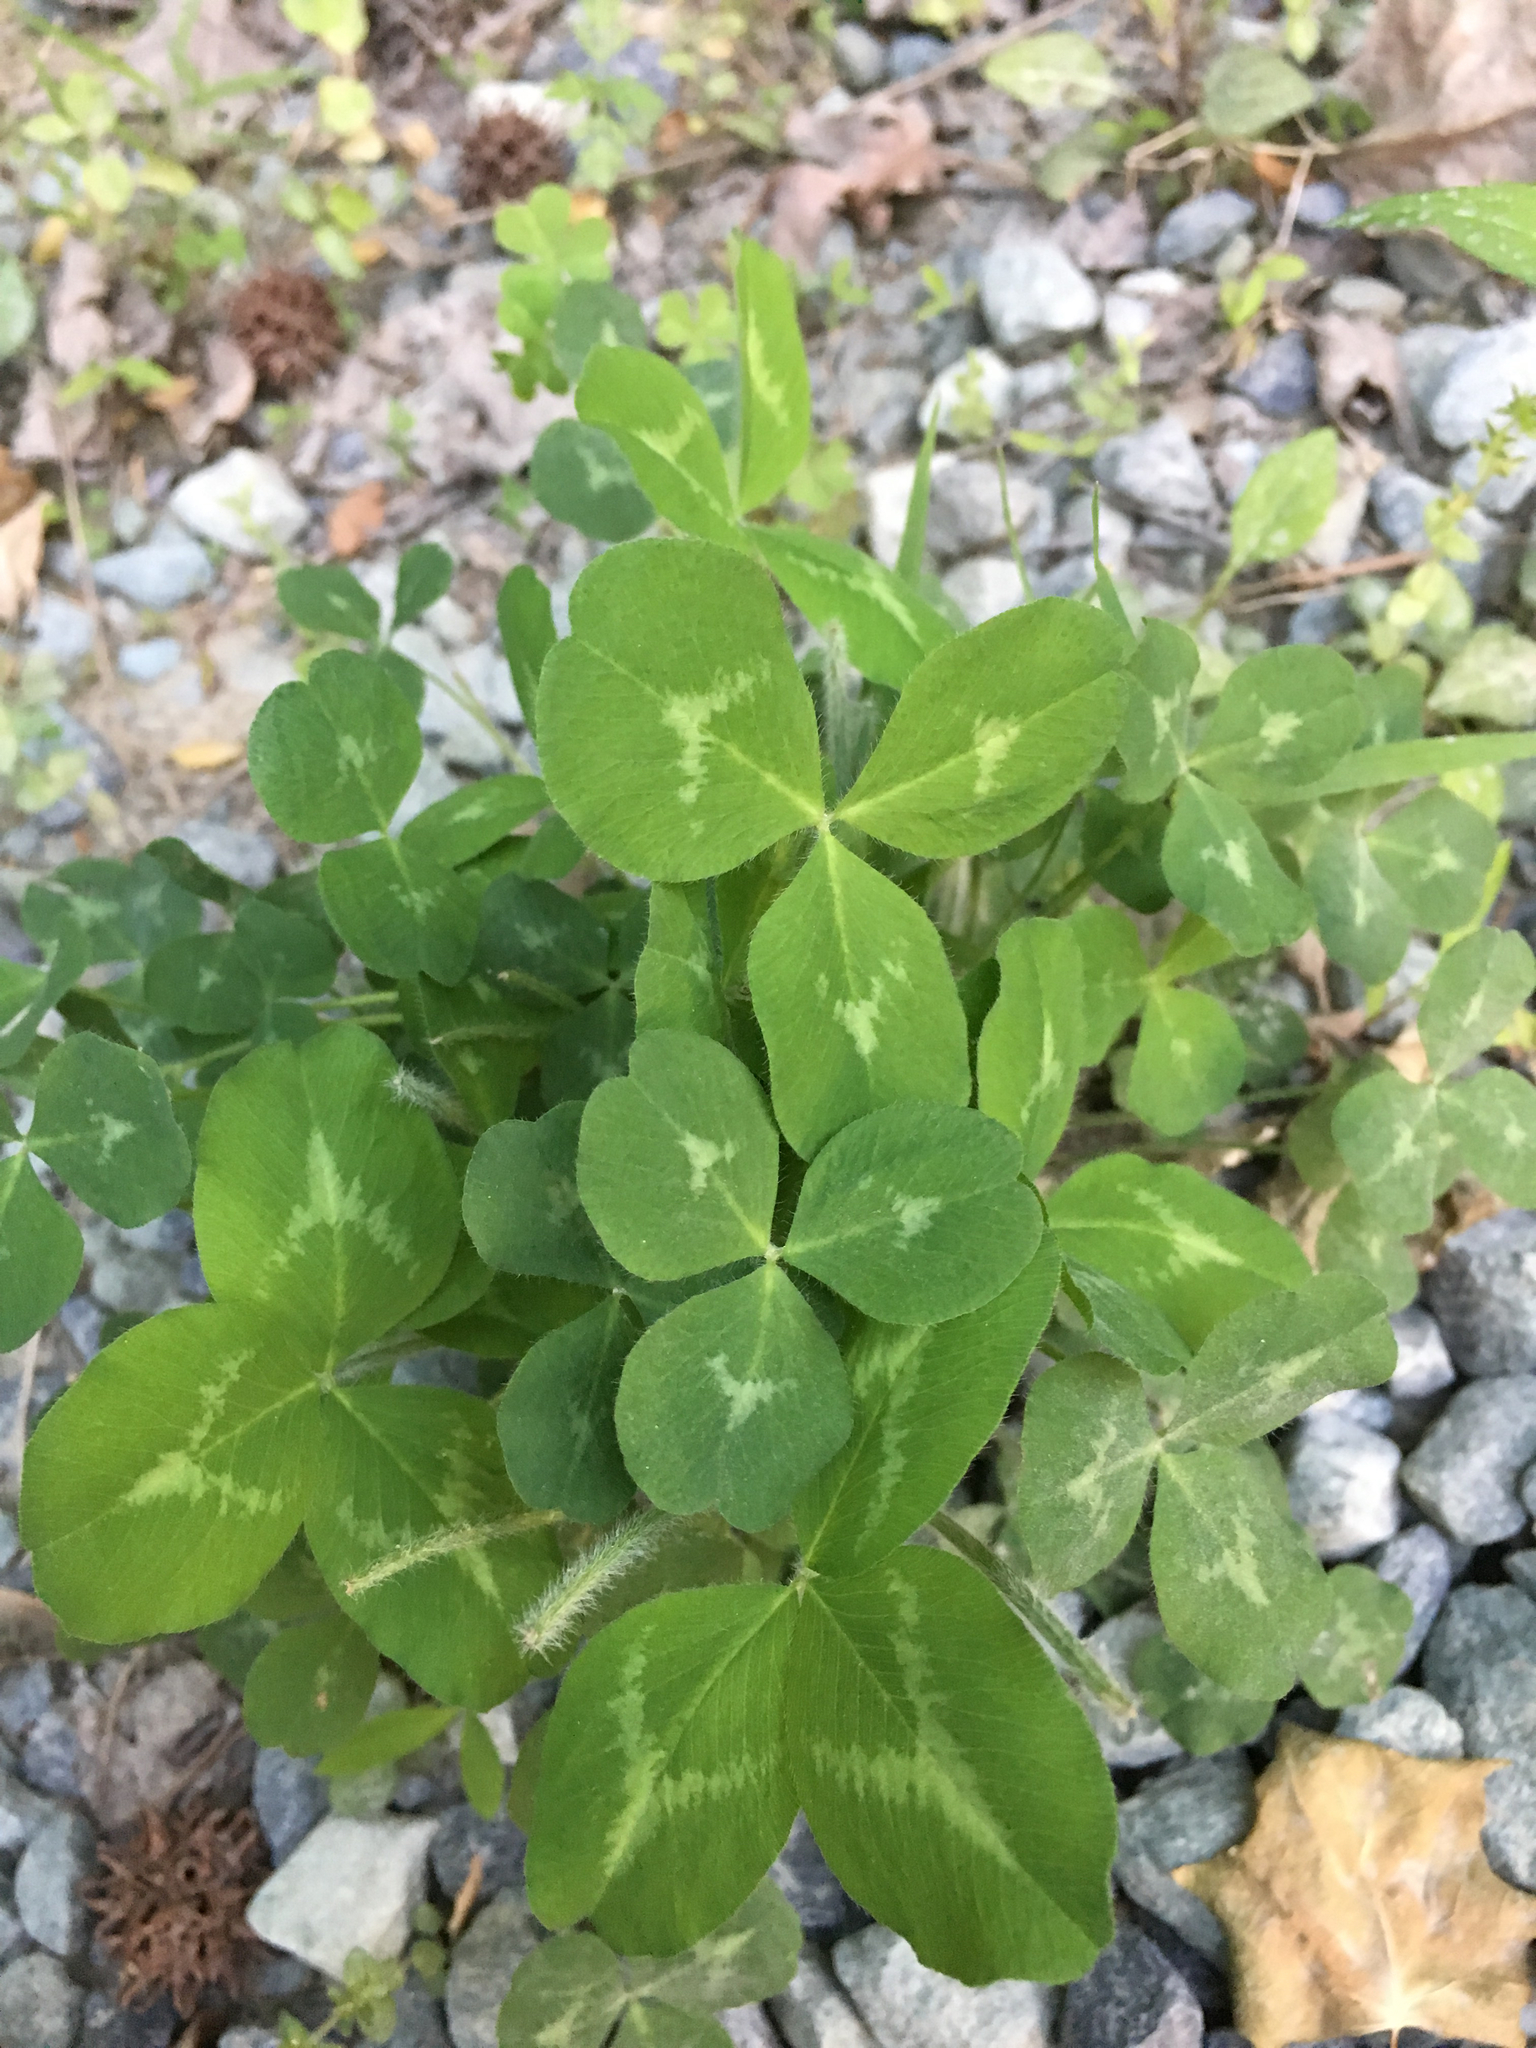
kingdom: Plantae
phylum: Tracheophyta
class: Magnoliopsida
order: Fabales
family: Fabaceae
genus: Trifolium
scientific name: Trifolium pratense
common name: Red clover
